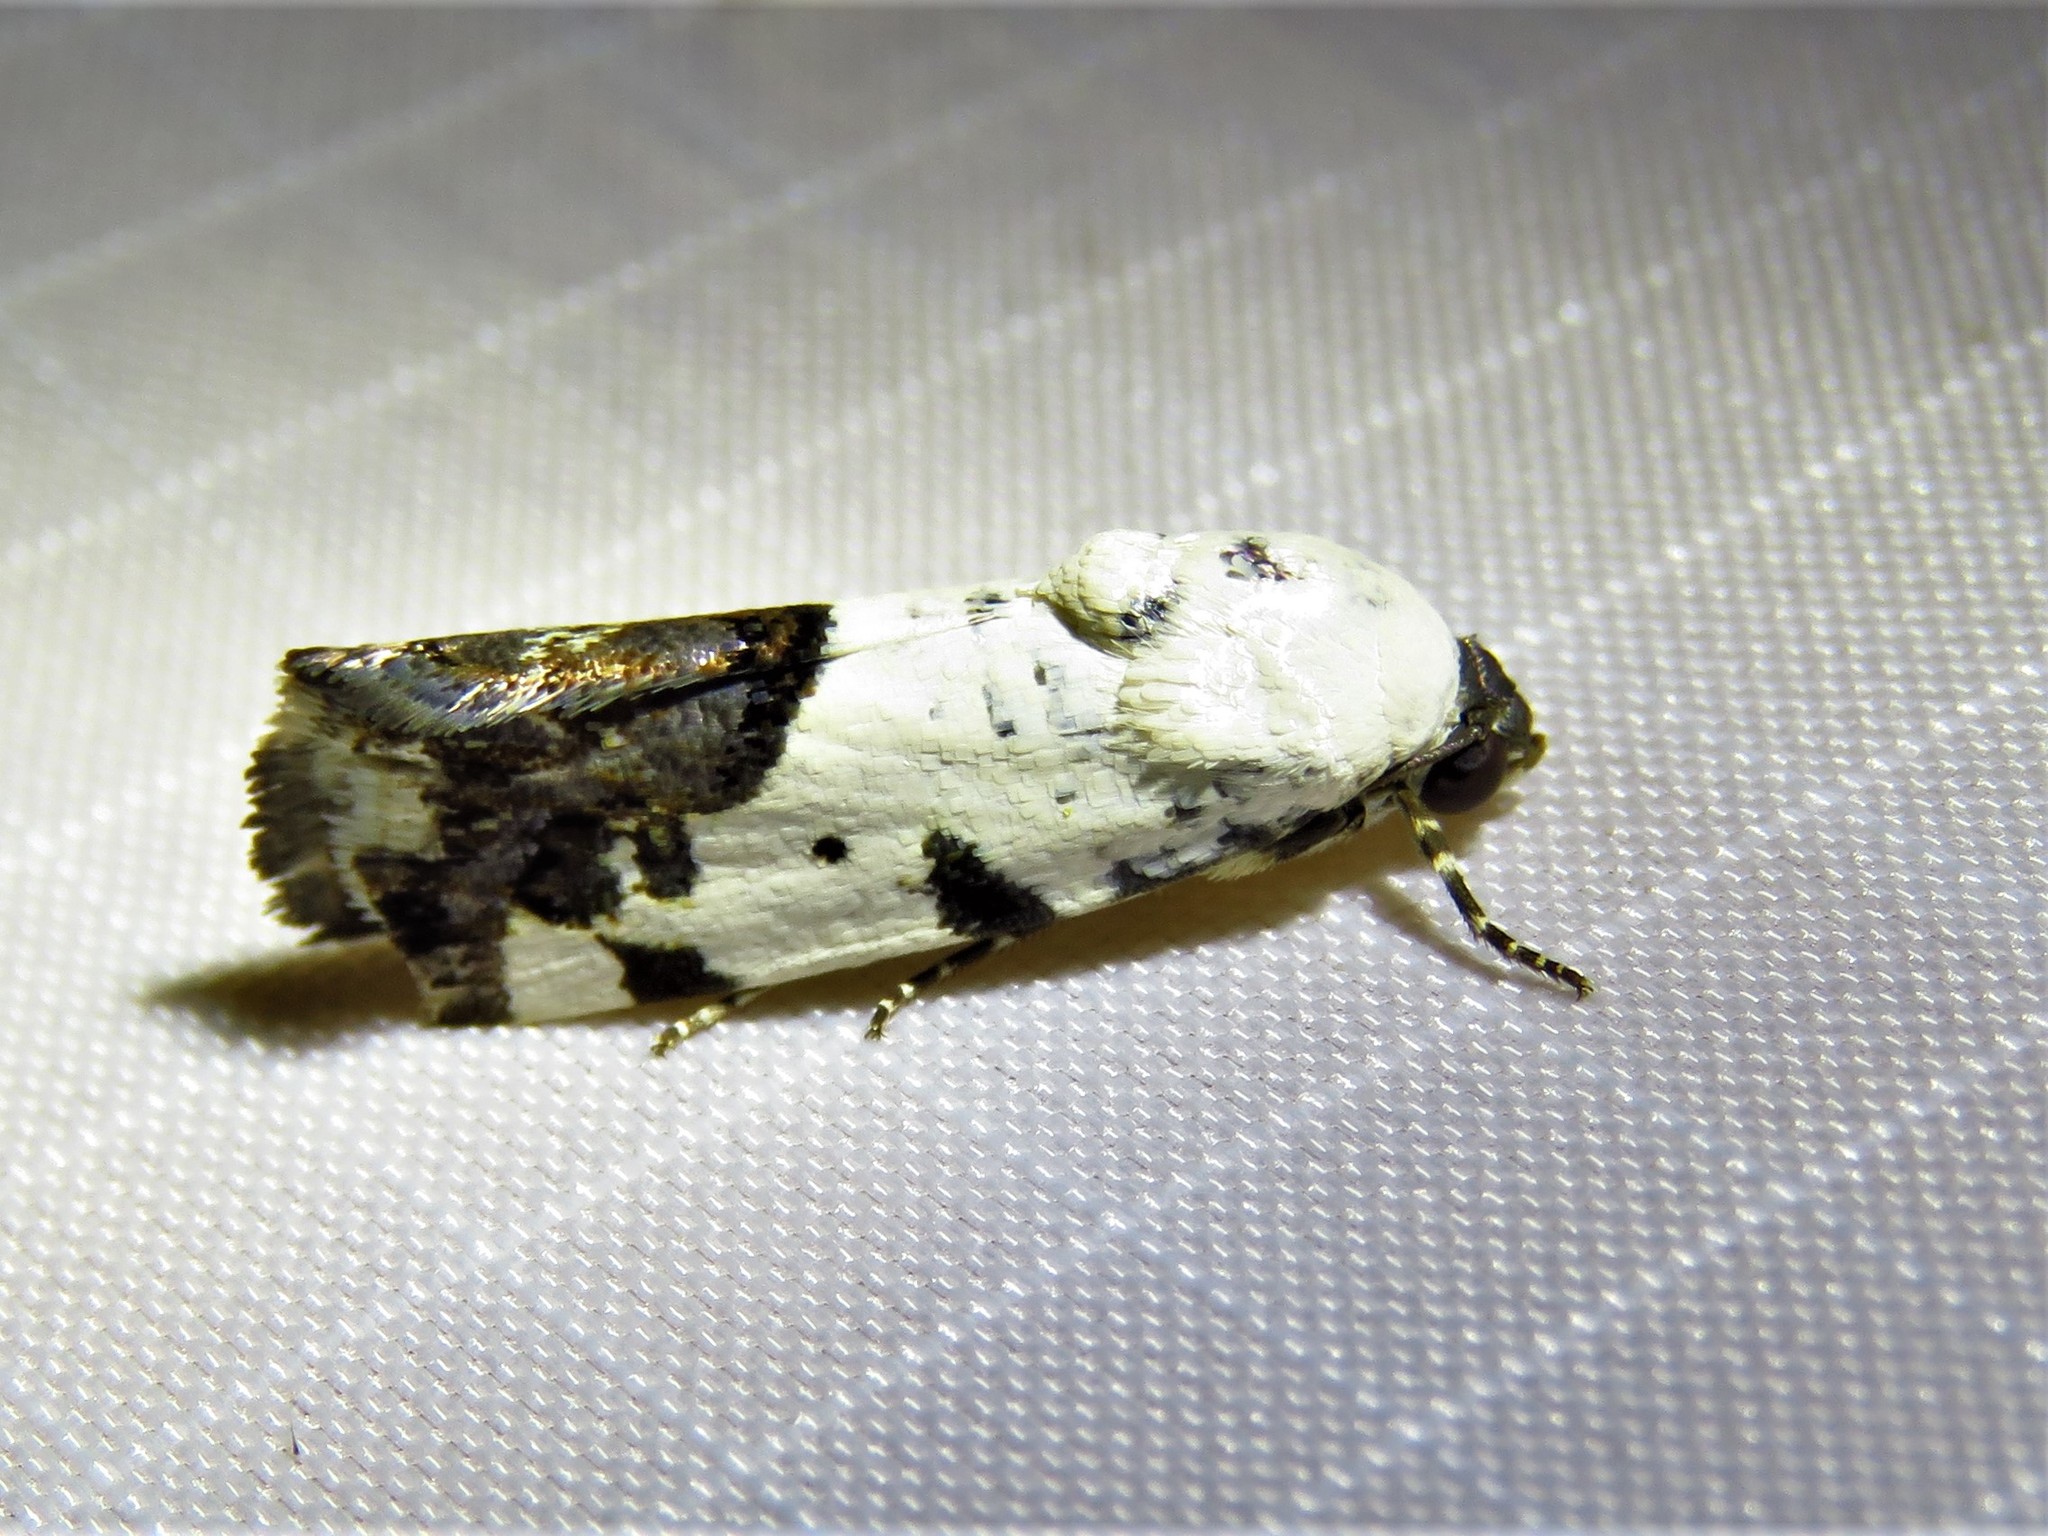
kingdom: Animalia
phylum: Arthropoda
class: Insecta
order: Lepidoptera
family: Noctuidae
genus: Acontia
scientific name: Acontia Tarache tetragona
